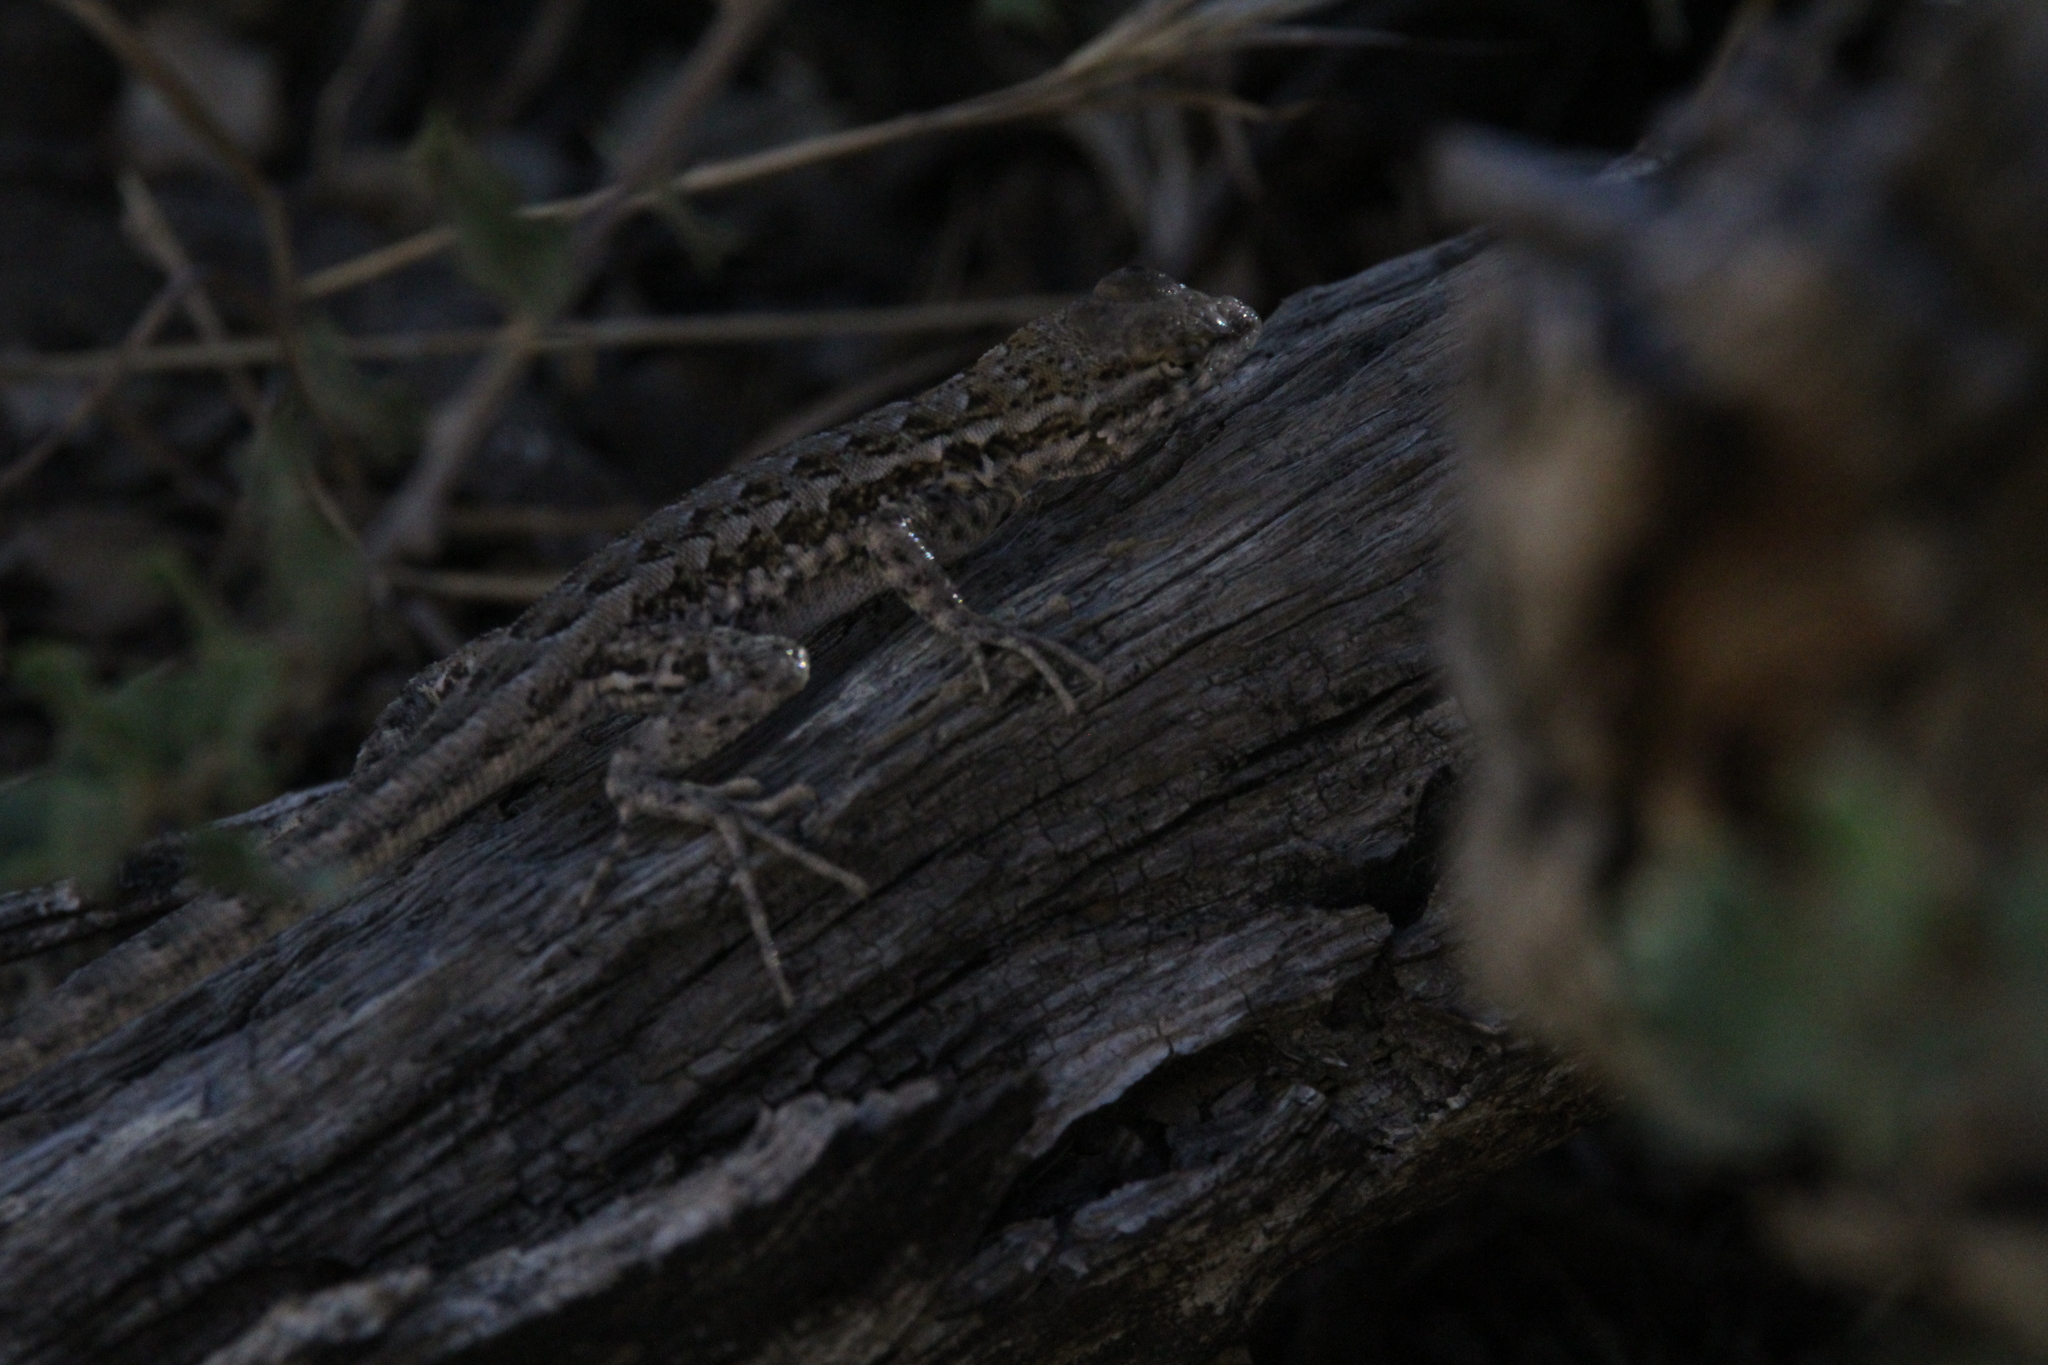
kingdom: Animalia
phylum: Chordata
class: Squamata
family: Phrynosomatidae
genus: Uta
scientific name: Uta stansburiana
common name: Side-blotched lizard
